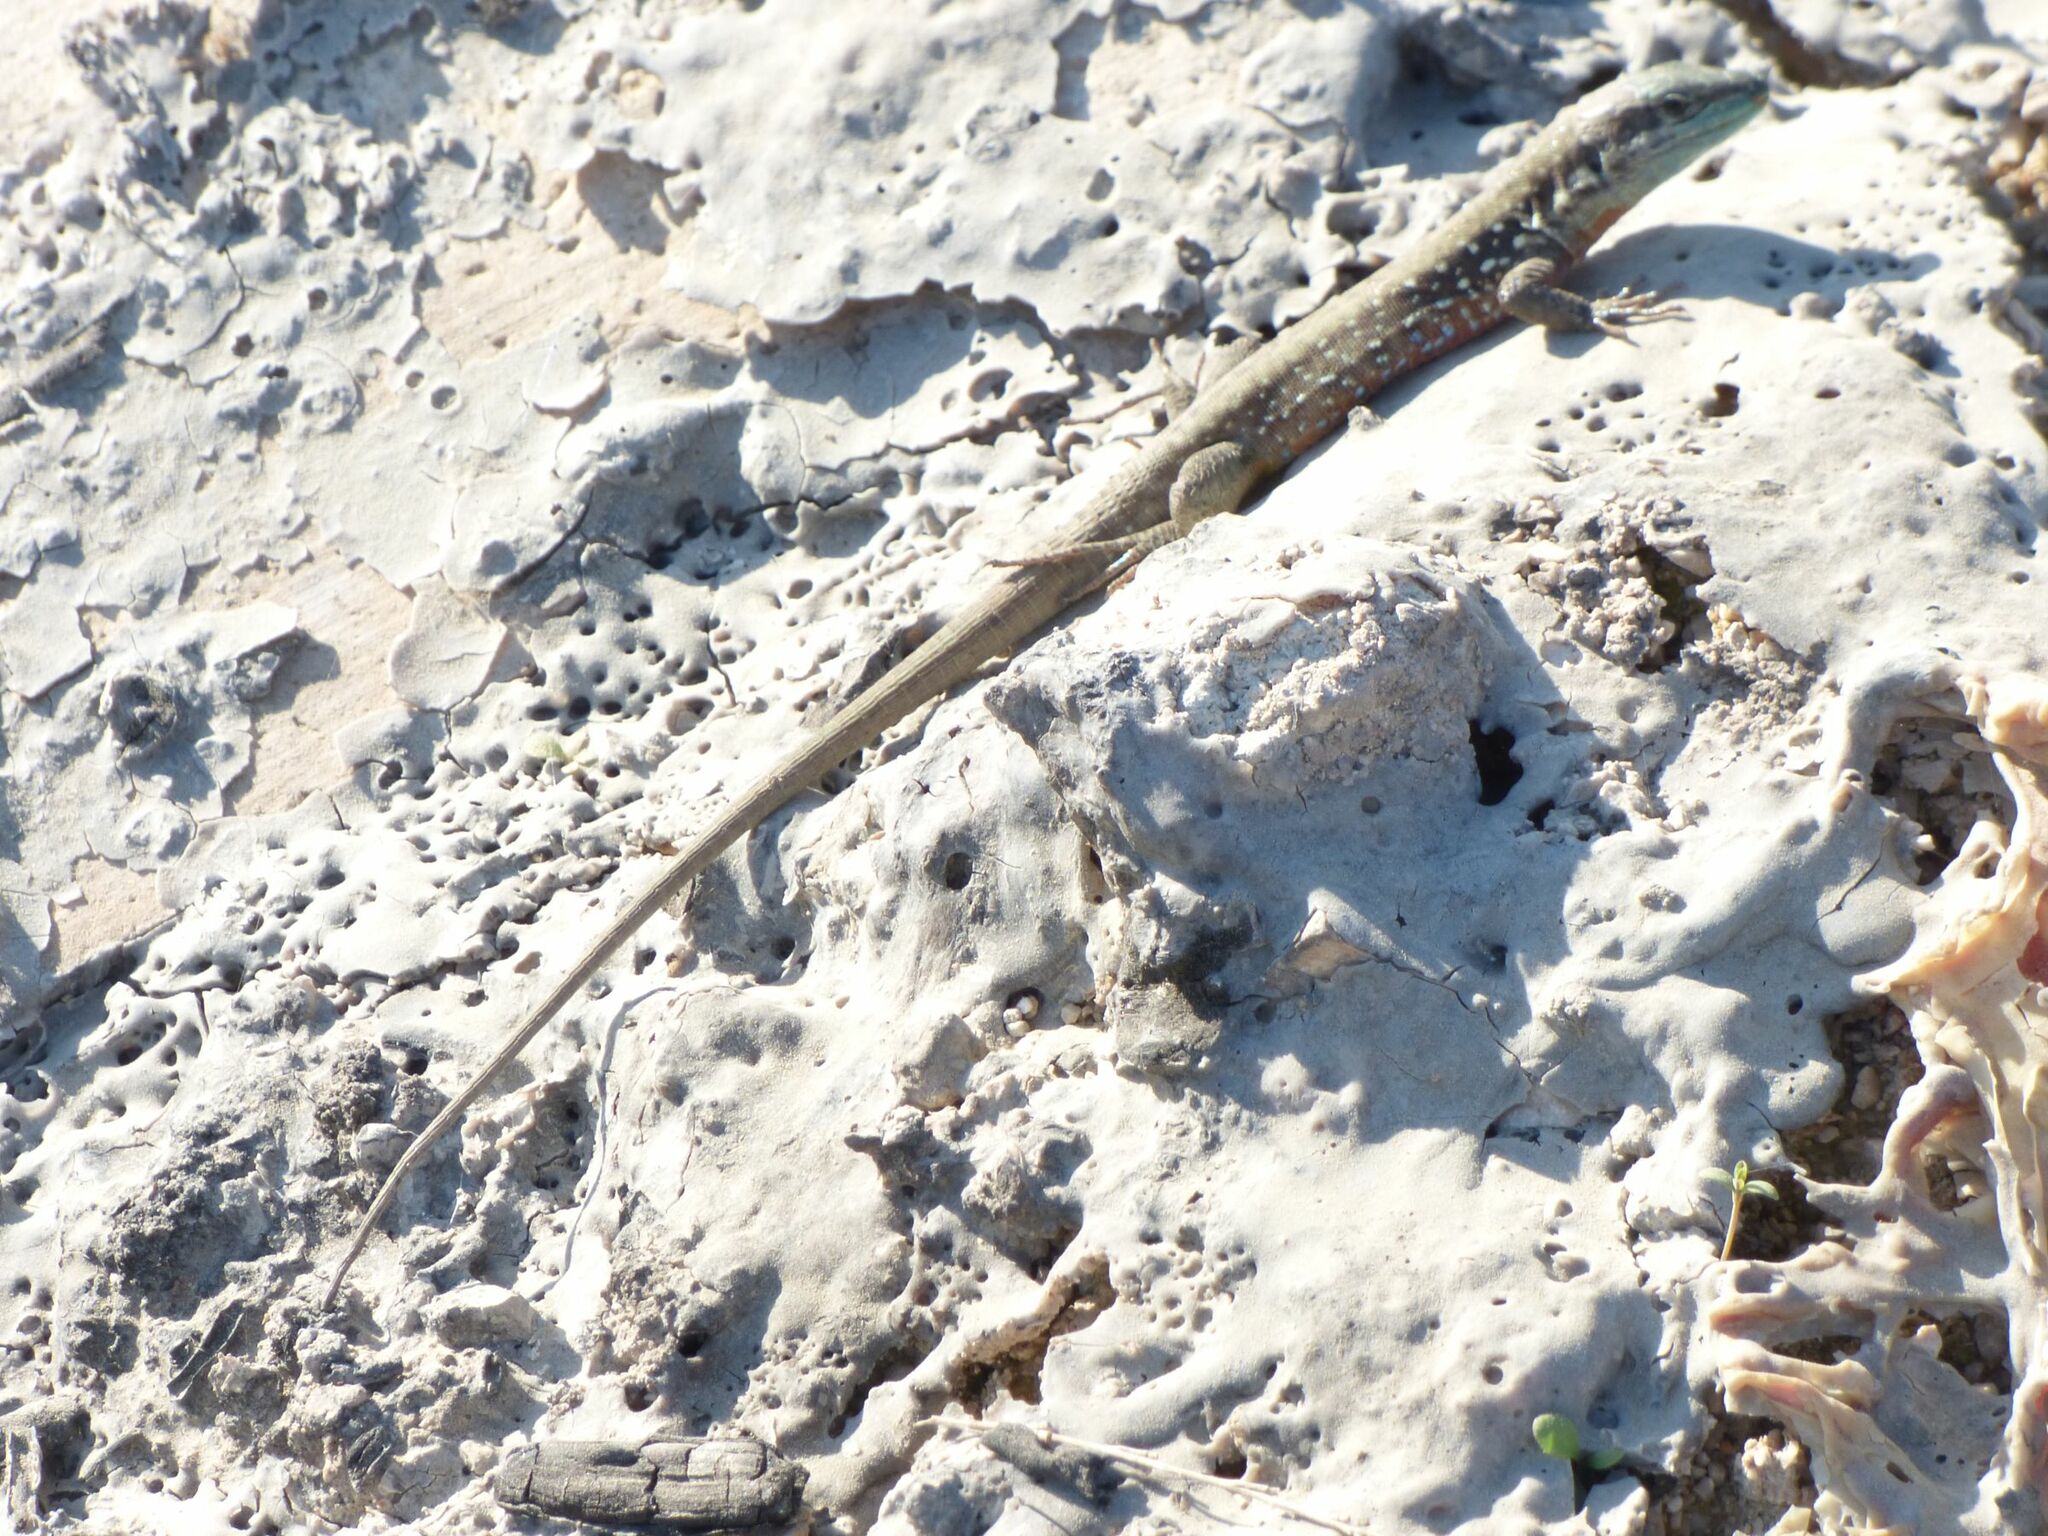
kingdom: Animalia
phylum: Chordata
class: Squamata
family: Lacertidae
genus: Phoenicolacerta
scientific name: Phoenicolacerta laevis
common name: Lebanon lizard
